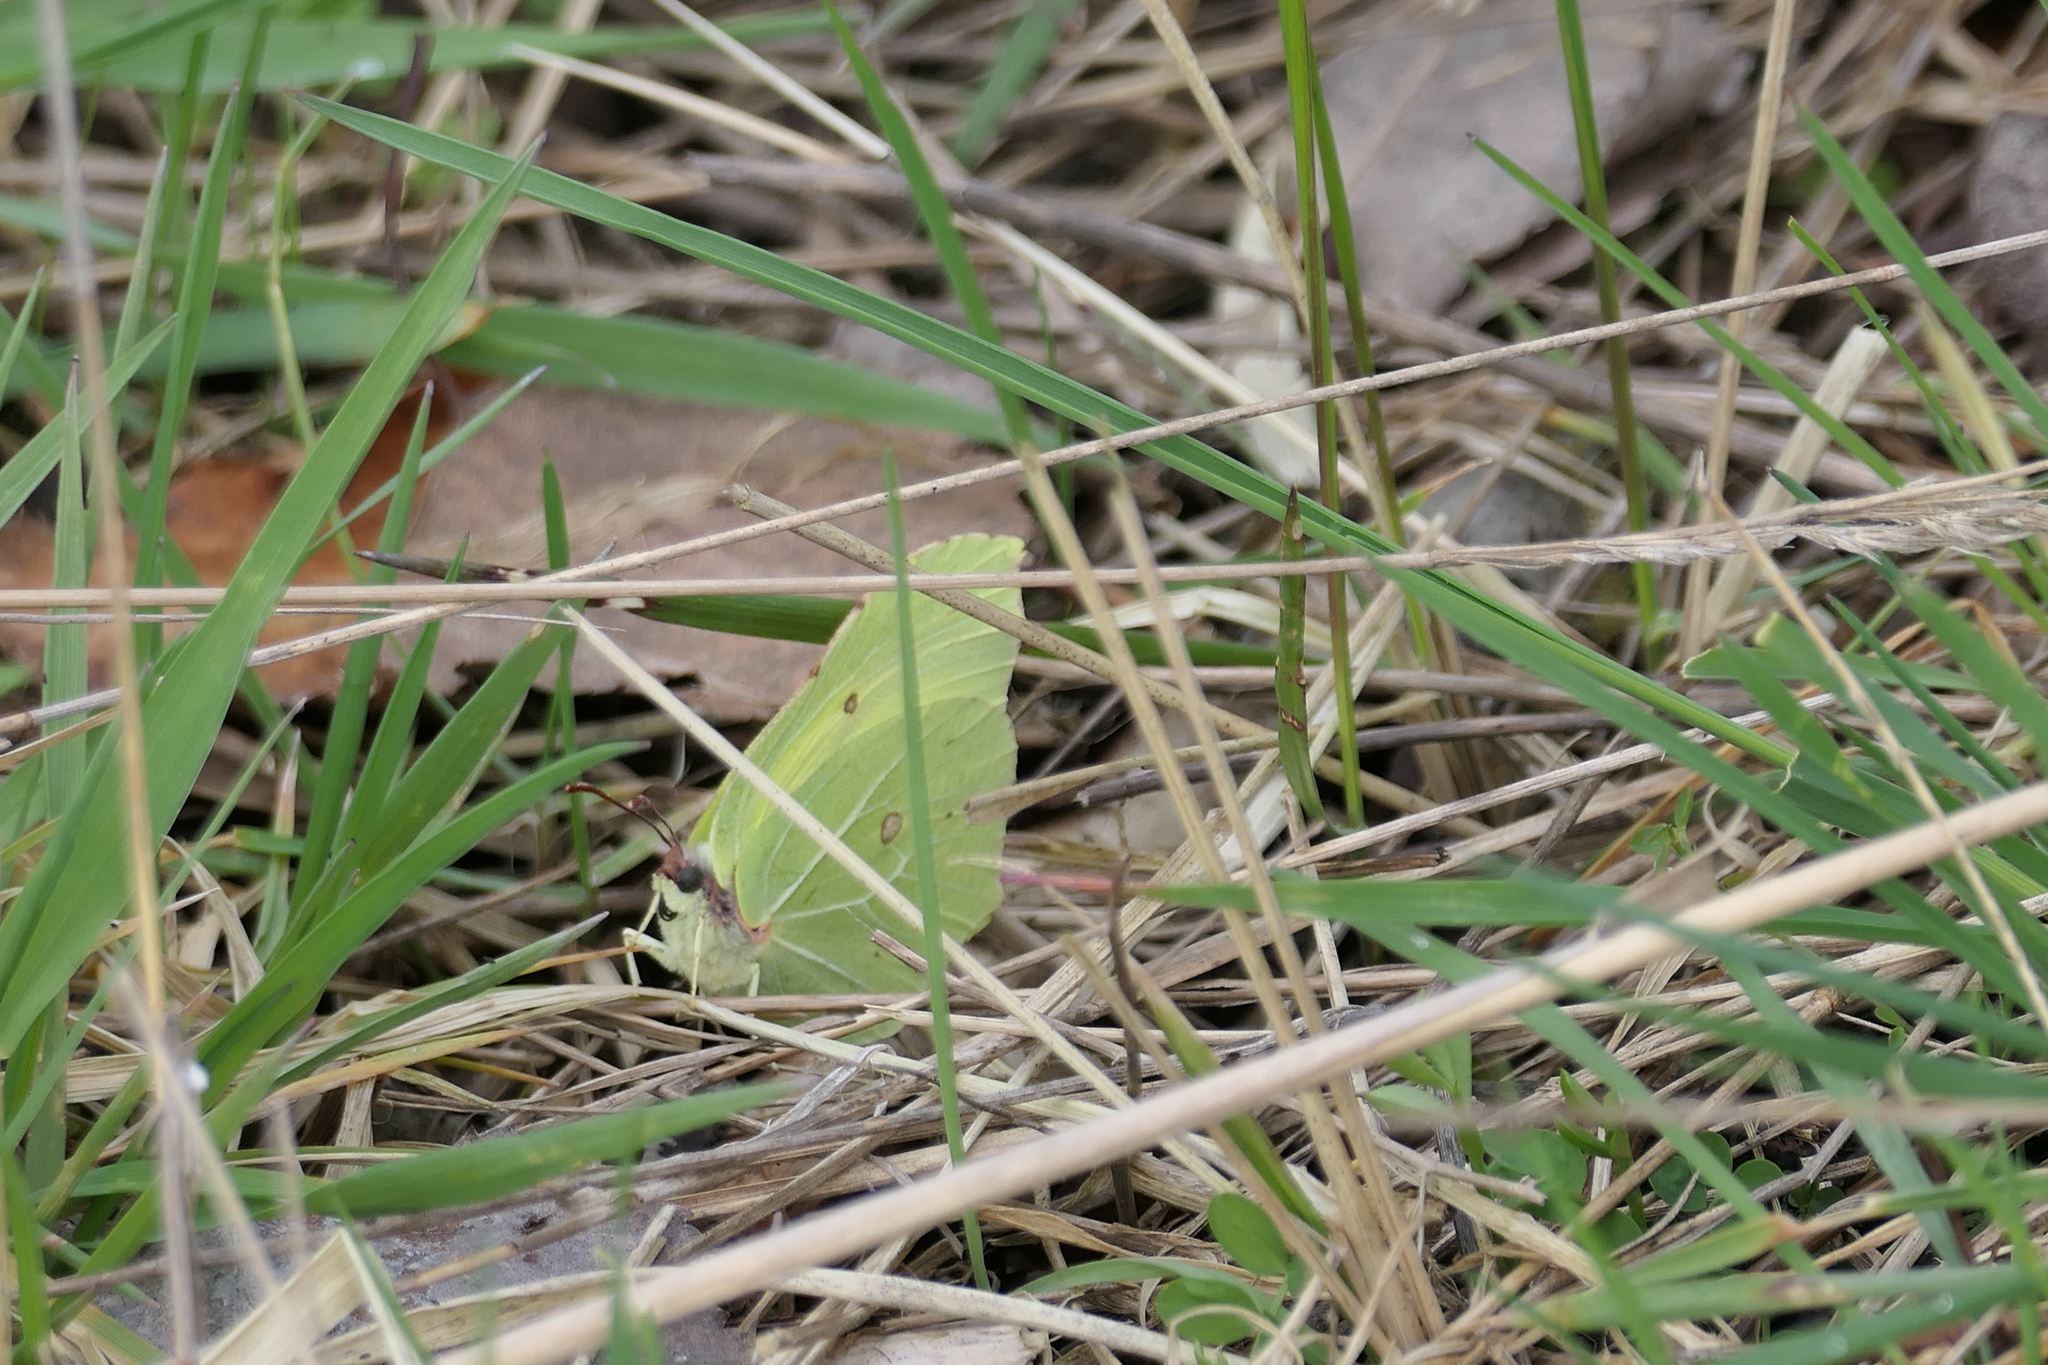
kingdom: Animalia
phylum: Arthropoda
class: Insecta
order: Lepidoptera
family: Pieridae
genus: Gonepteryx
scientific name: Gonepteryx rhamni
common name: Brimstone
